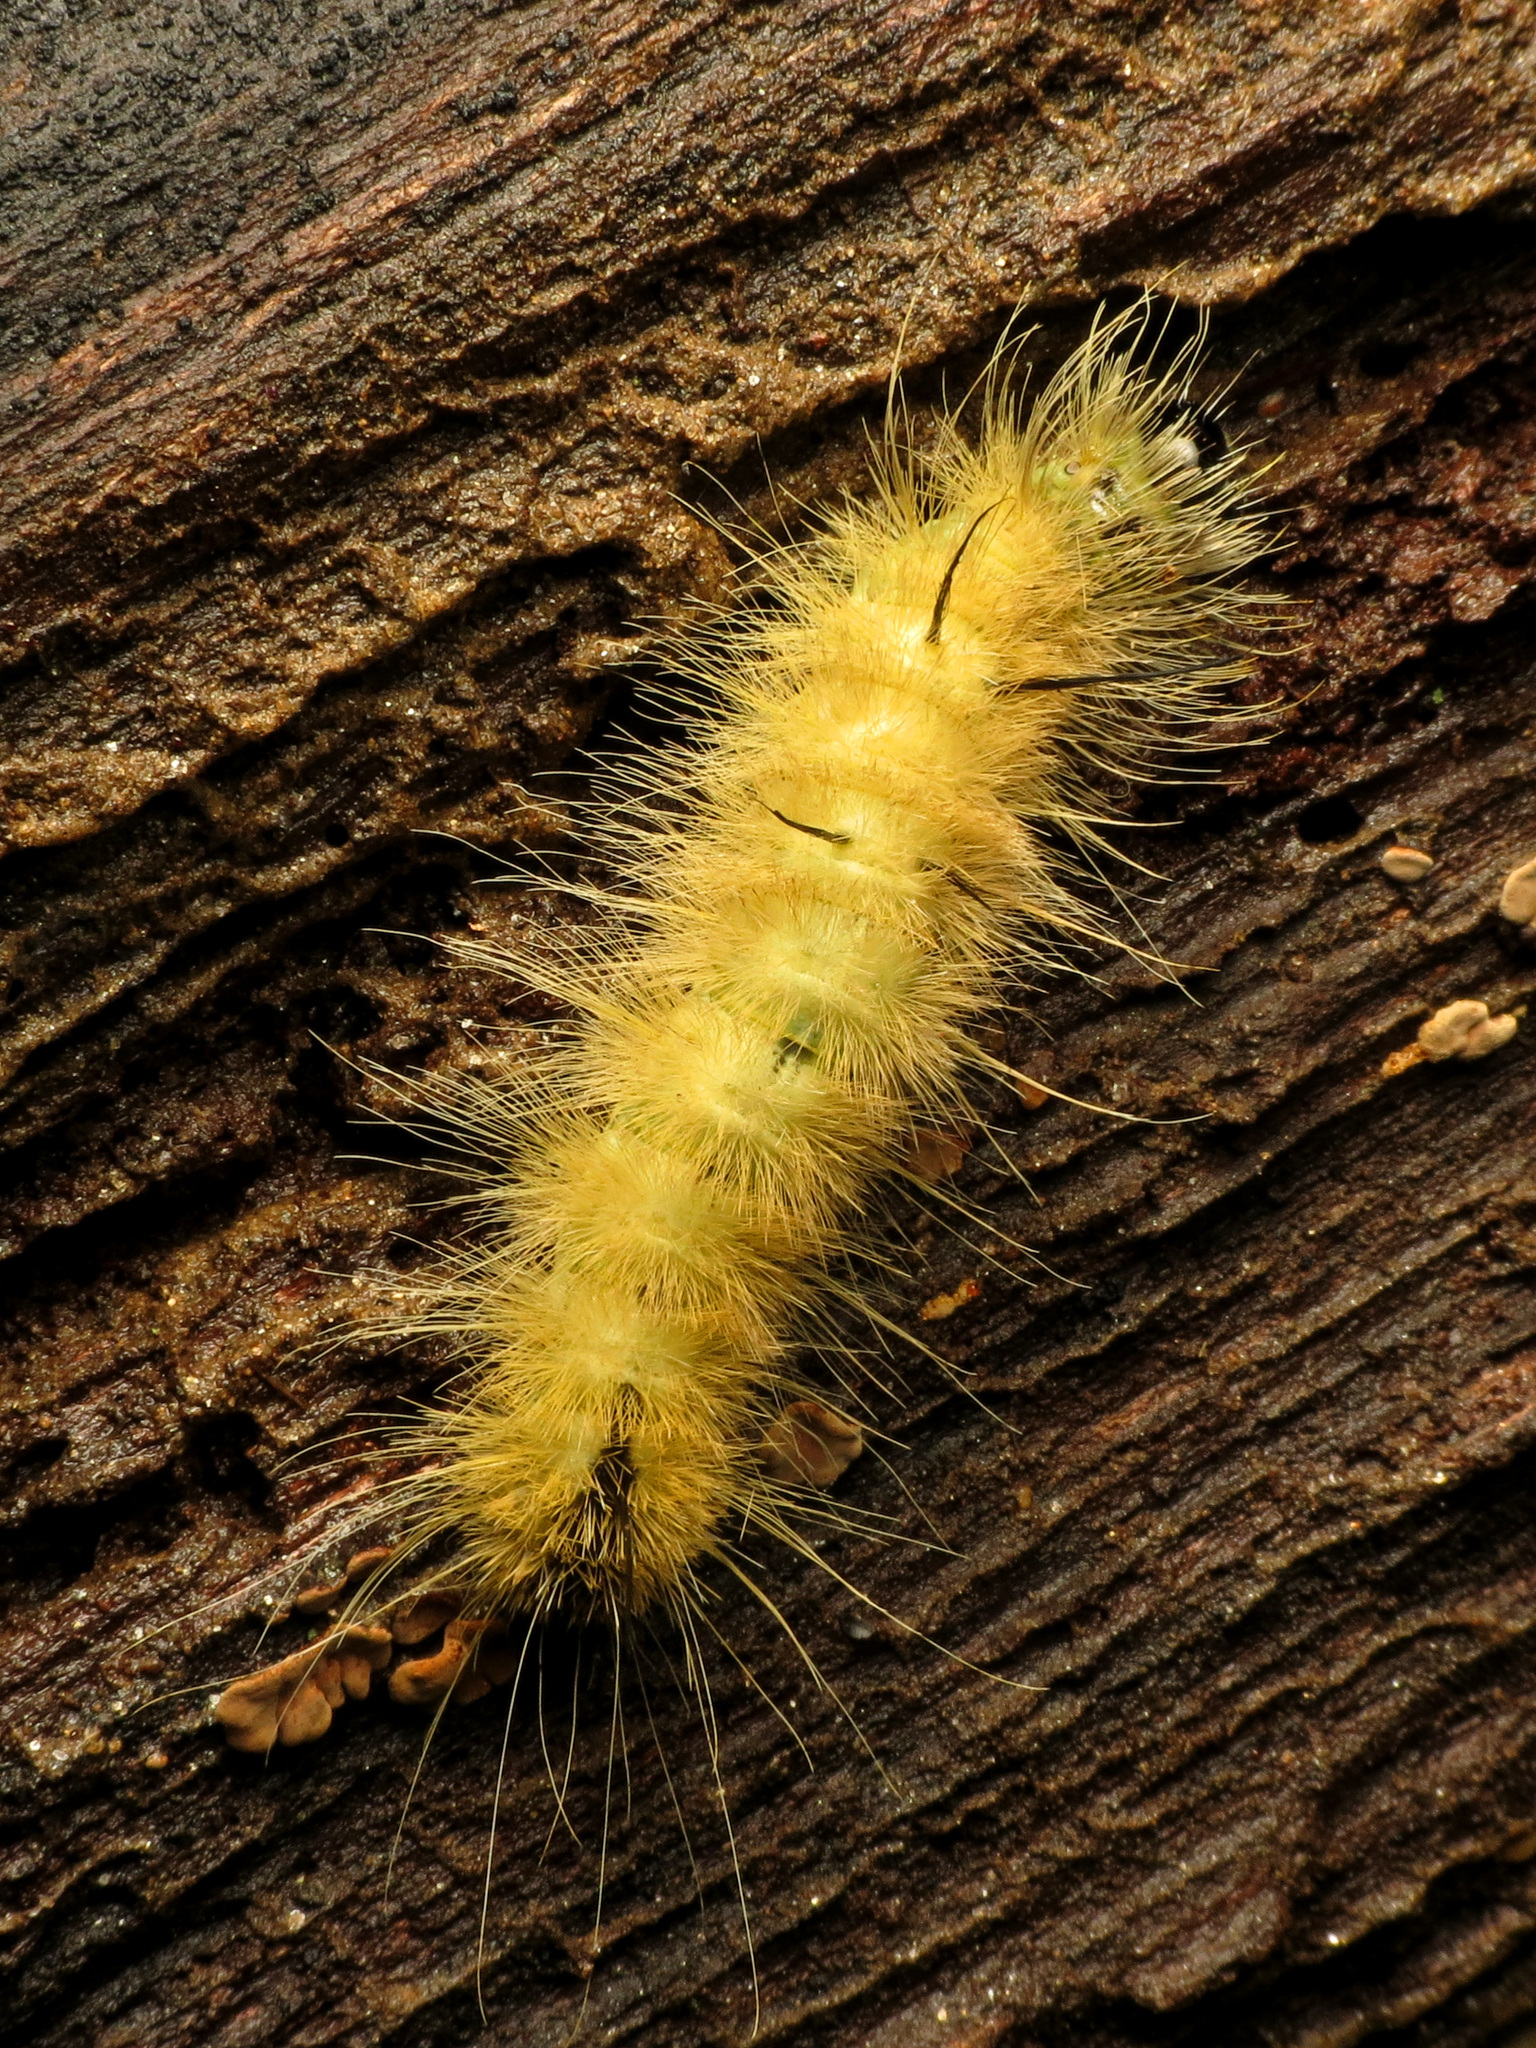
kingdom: Animalia
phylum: Arthropoda
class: Insecta
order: Lepidoptera
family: Noctuidae
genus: Acronicta
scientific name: Acronicta americana
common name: American dagger
